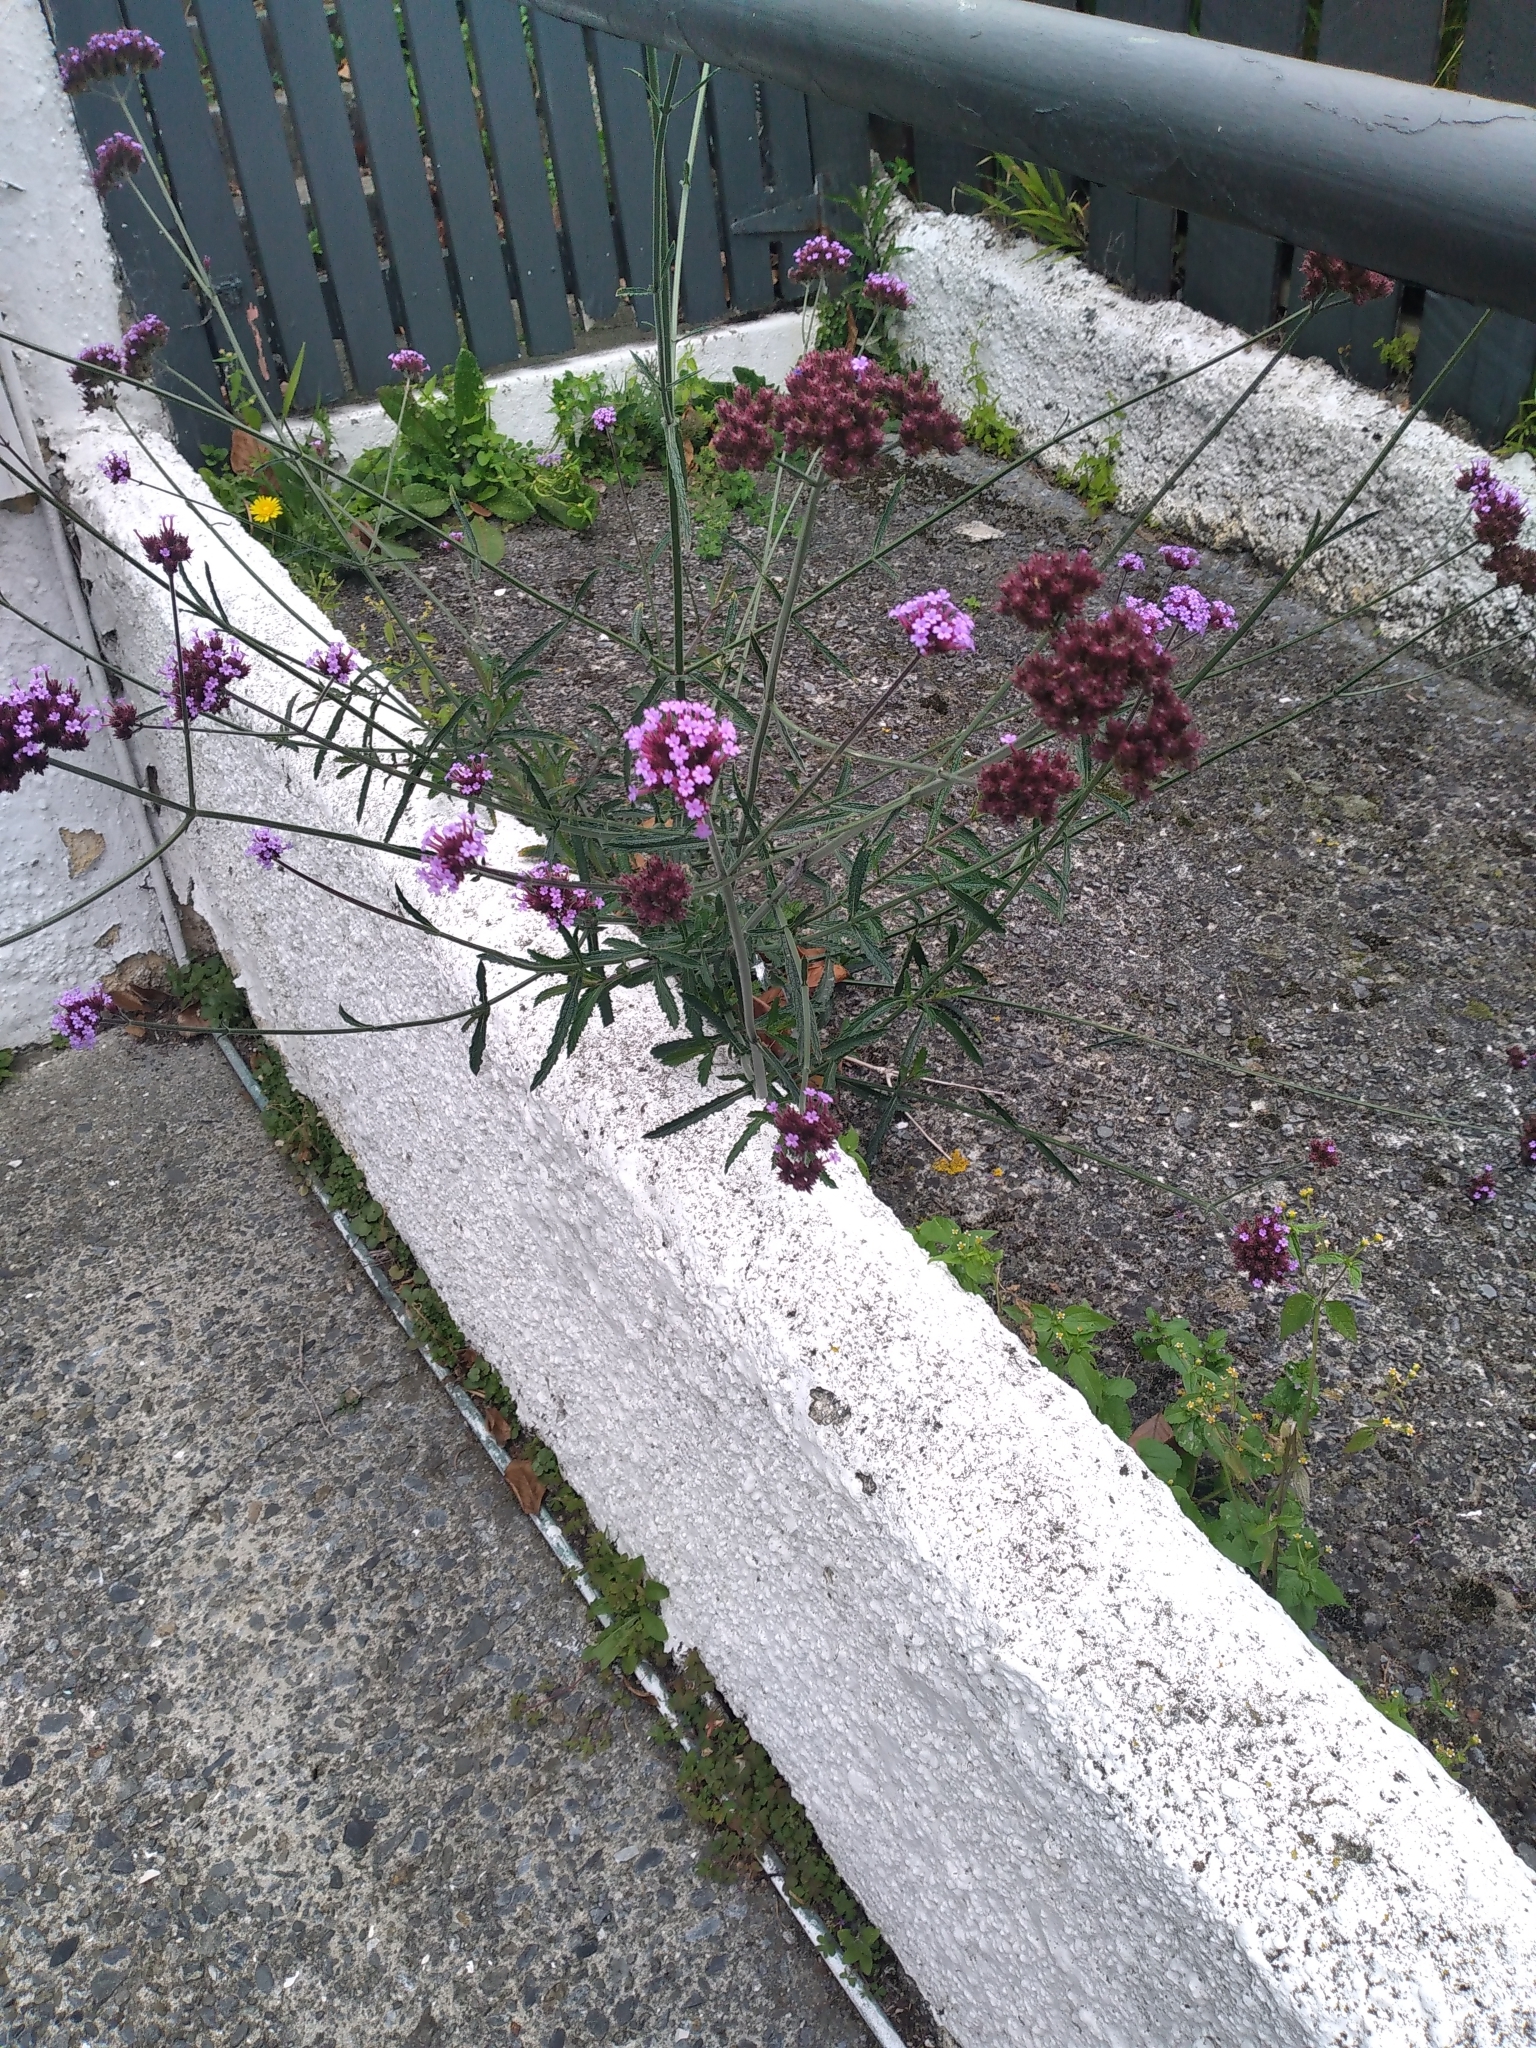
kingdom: Plantae
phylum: Tracheophyta
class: Magnoliopsida
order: Lamiales
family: Verbenaceae
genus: Verbena
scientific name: Verbena bonariensis
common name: Purpletop vervain
